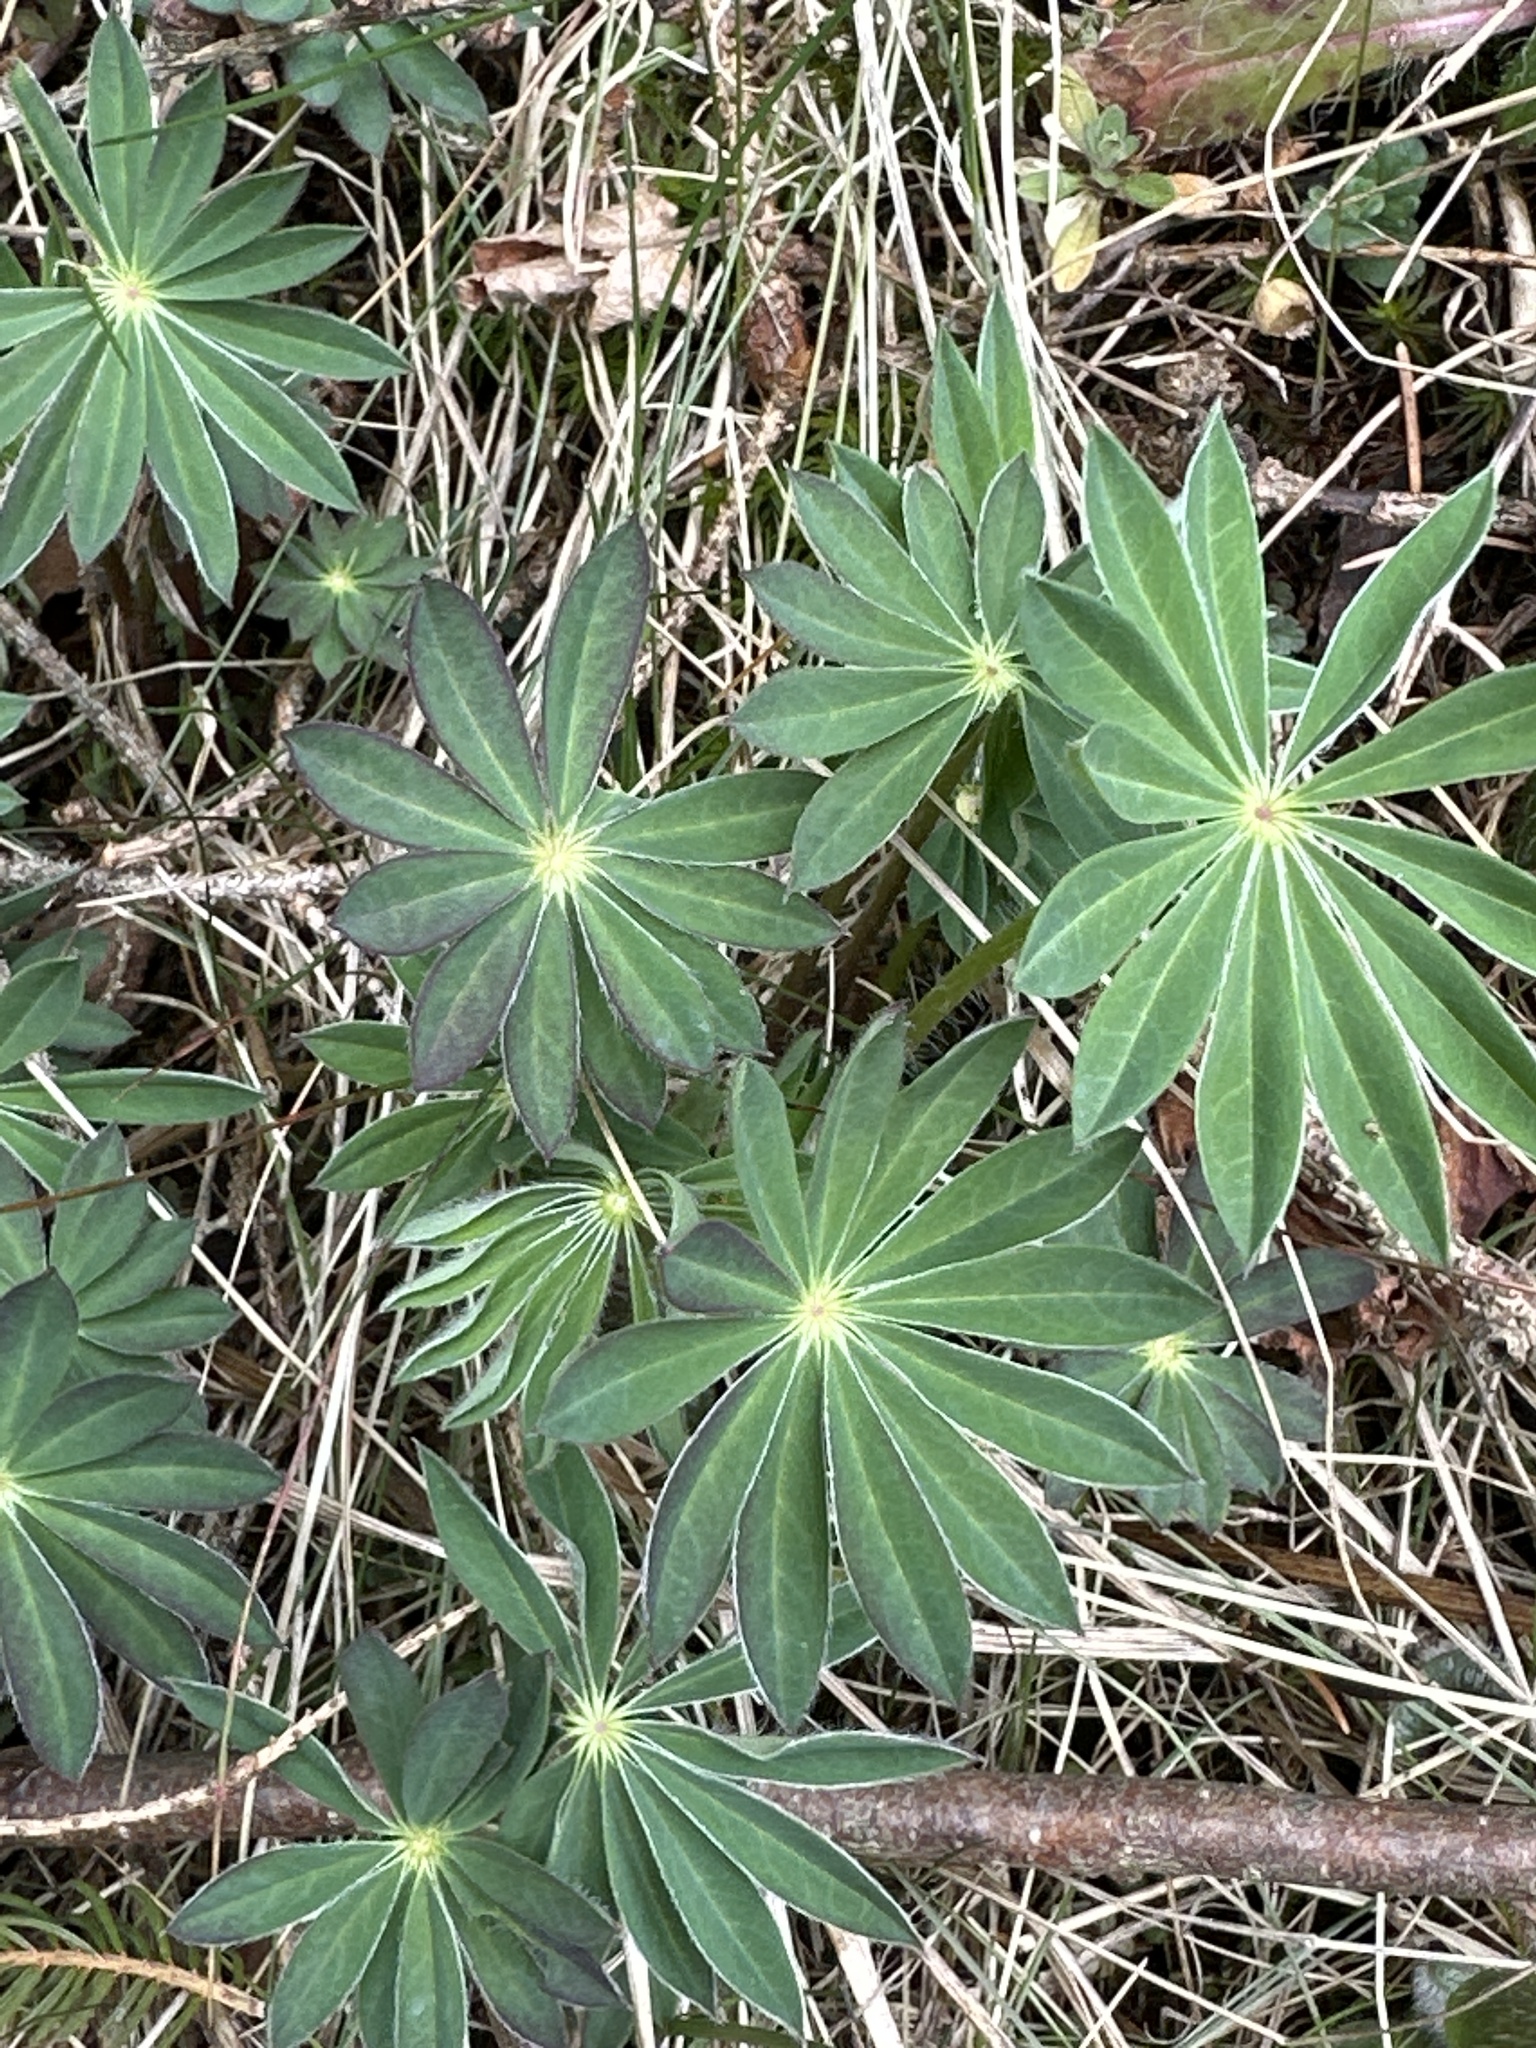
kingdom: Plantae
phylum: Tracheophyta
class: Magnoliopsida
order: Fabales
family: Fabaceae
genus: Lupinus
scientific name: Lupinus polyphyllus
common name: Garden lupin
